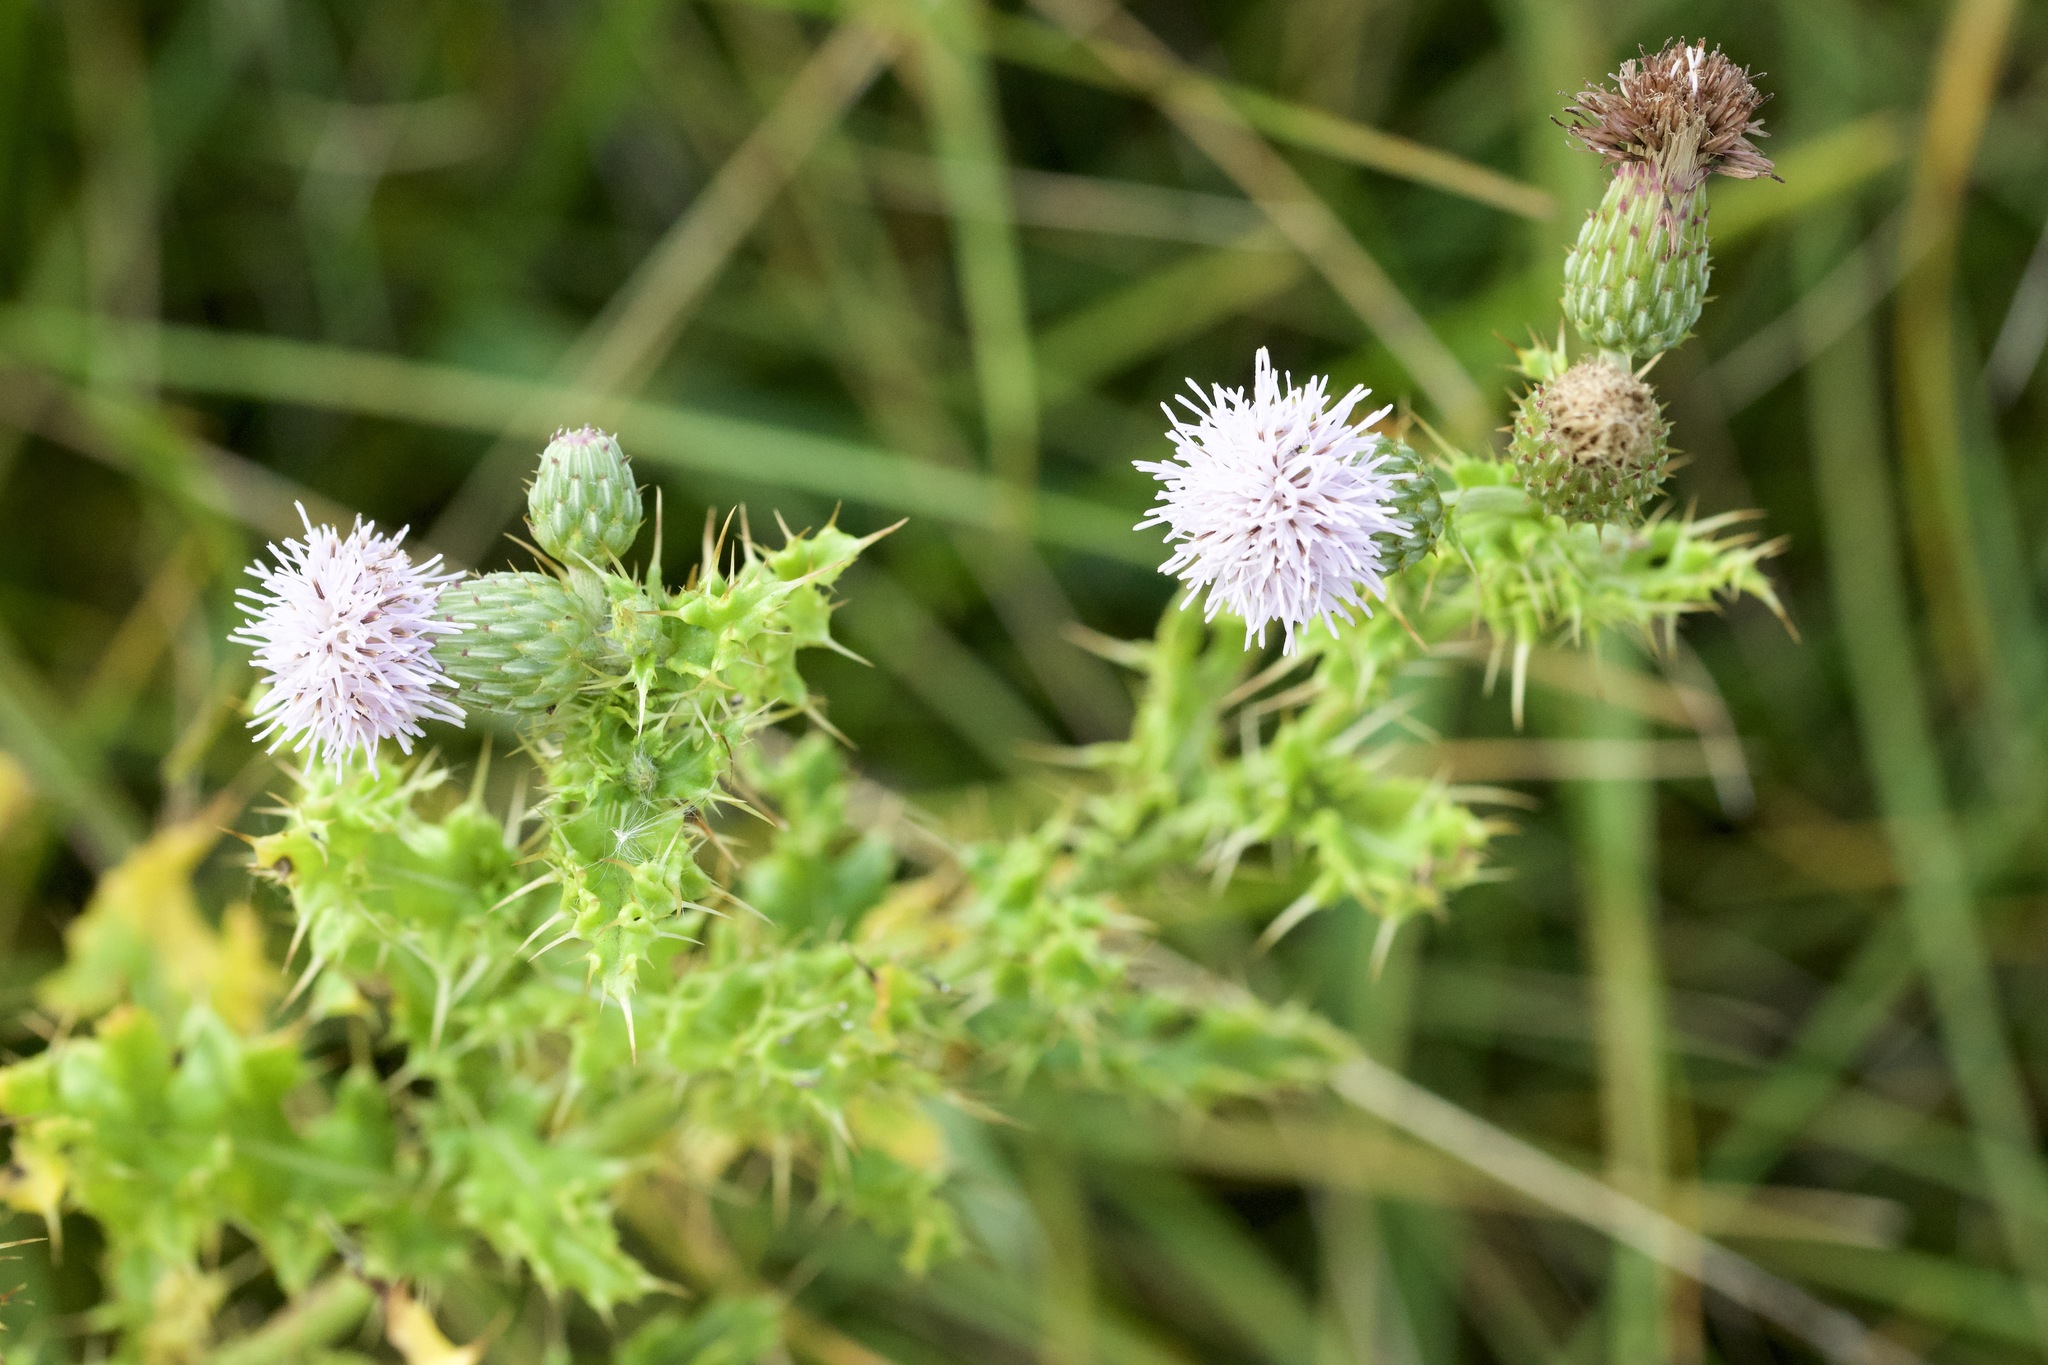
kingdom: Plantae
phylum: Tracheophyta
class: Magnoliopsida
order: Asterales
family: Asteraceae
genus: Cirsium
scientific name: Cirsium arvense
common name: Creeping thistle
